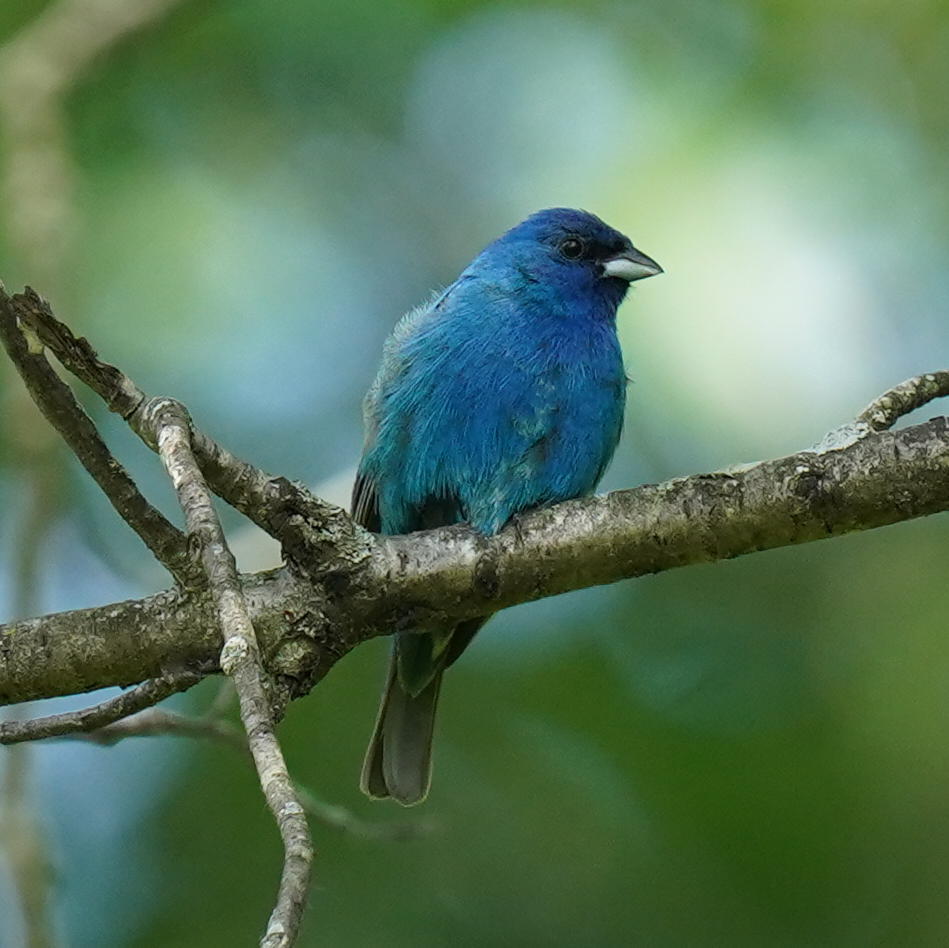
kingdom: Animalia
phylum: Chordata
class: Aves
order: Passeriformes
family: Cardinalidae
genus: Passerina
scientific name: Passerina cyanea
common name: Indigo bunting
